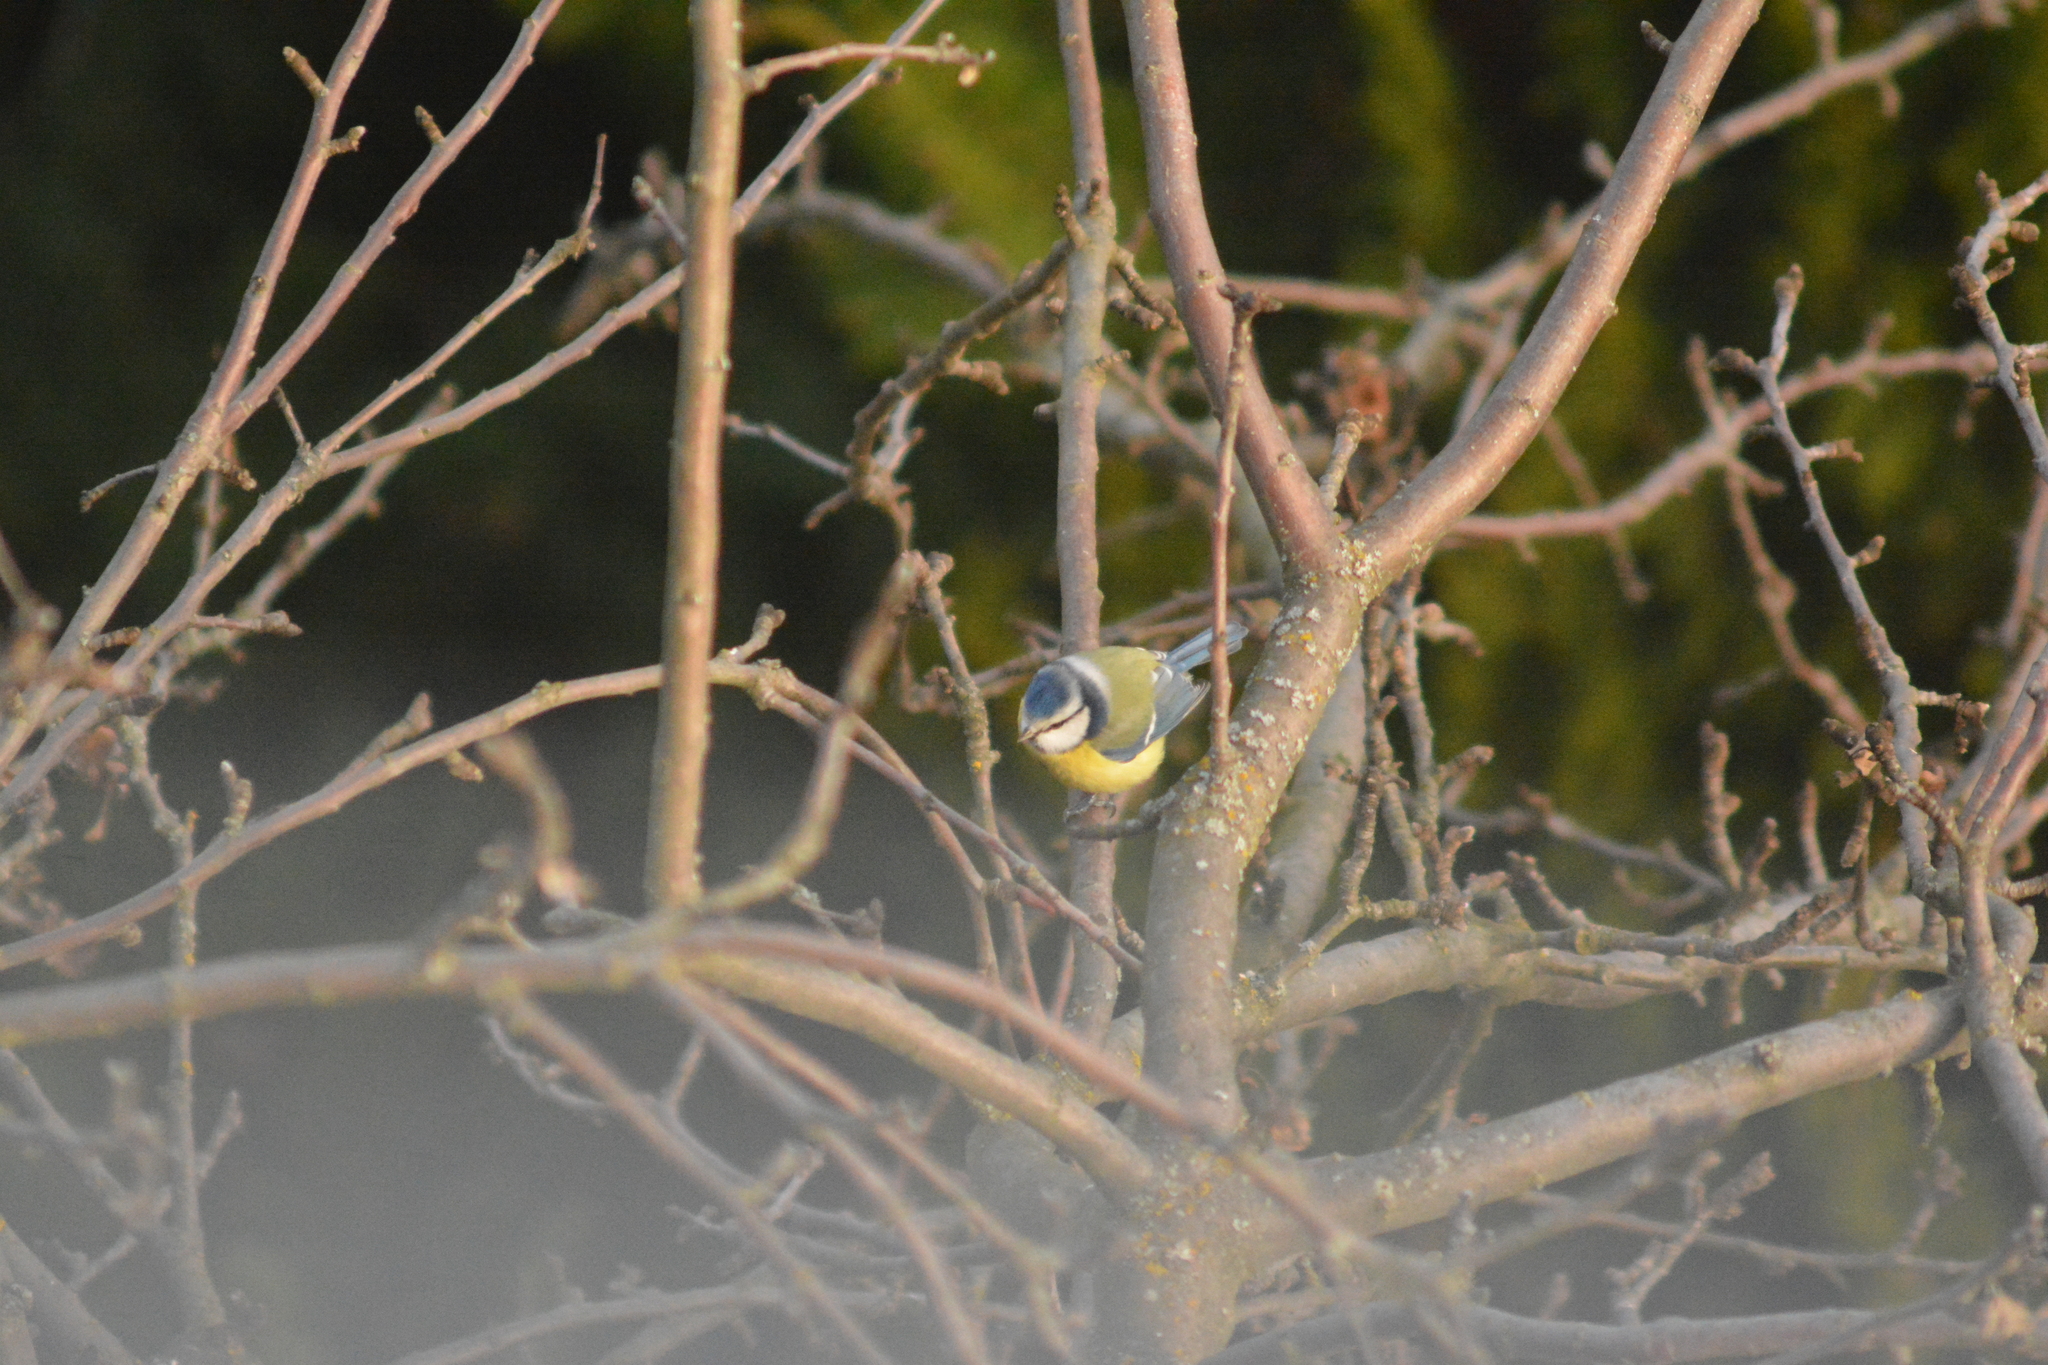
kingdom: Animalia
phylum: Chordata
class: Aves
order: Passeriformes
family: Paridae
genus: Cyanistes
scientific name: Cyanistes caeruleus
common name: Eurasian blue tit
